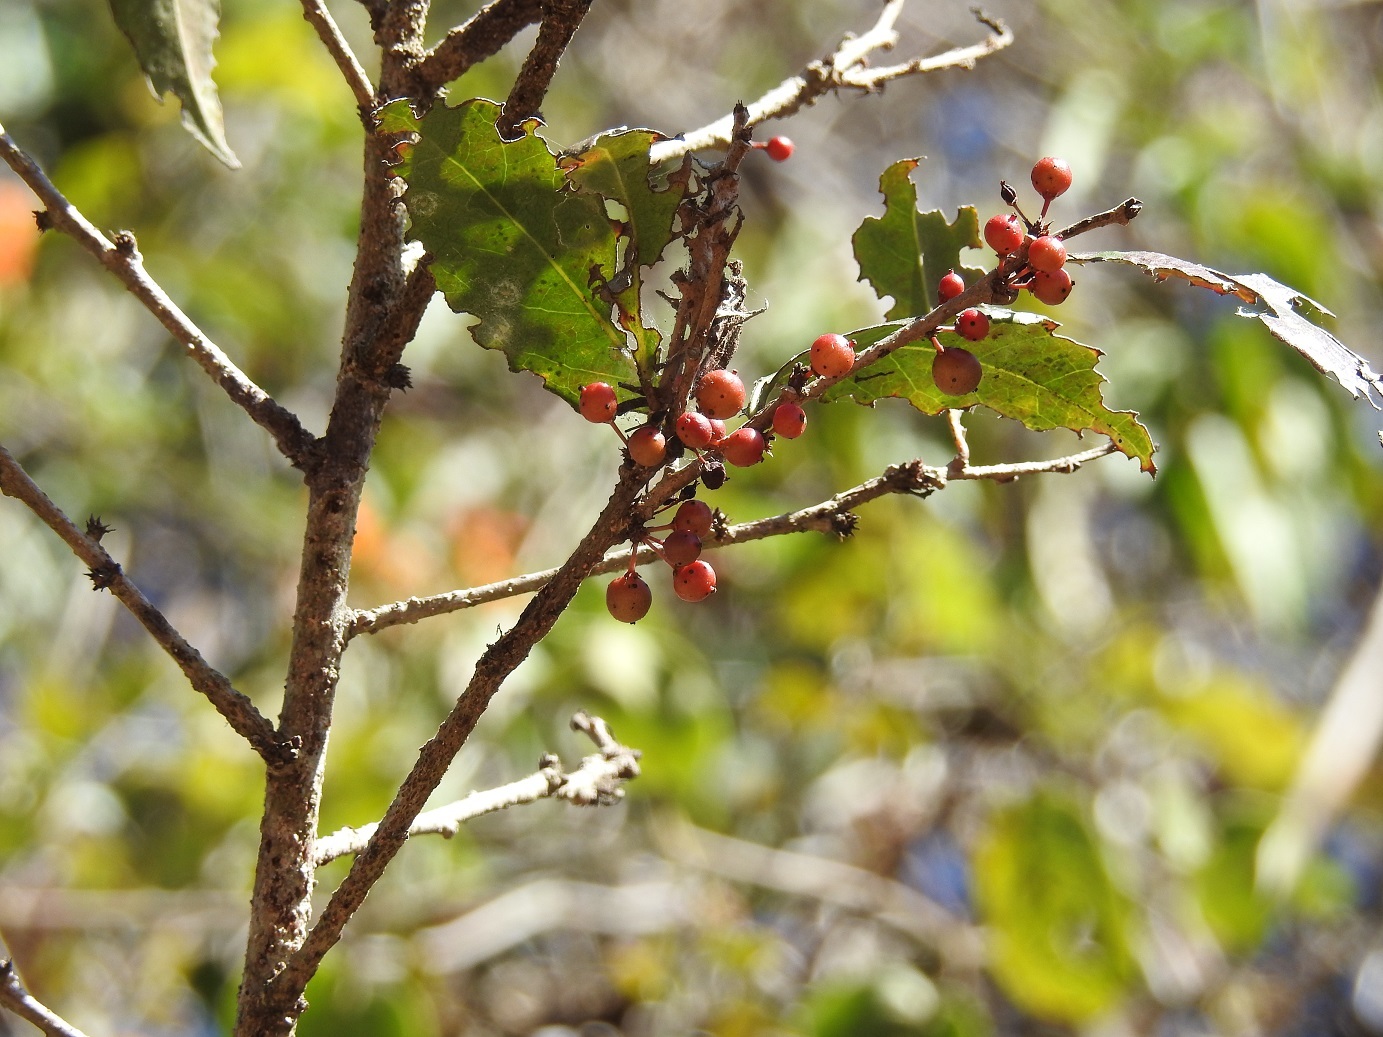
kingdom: Plantae
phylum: Tracheophyta
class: Magnoliopsida
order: Malpighiales
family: Salicaceae
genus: Xylosma
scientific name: Xylosma flexuosa
